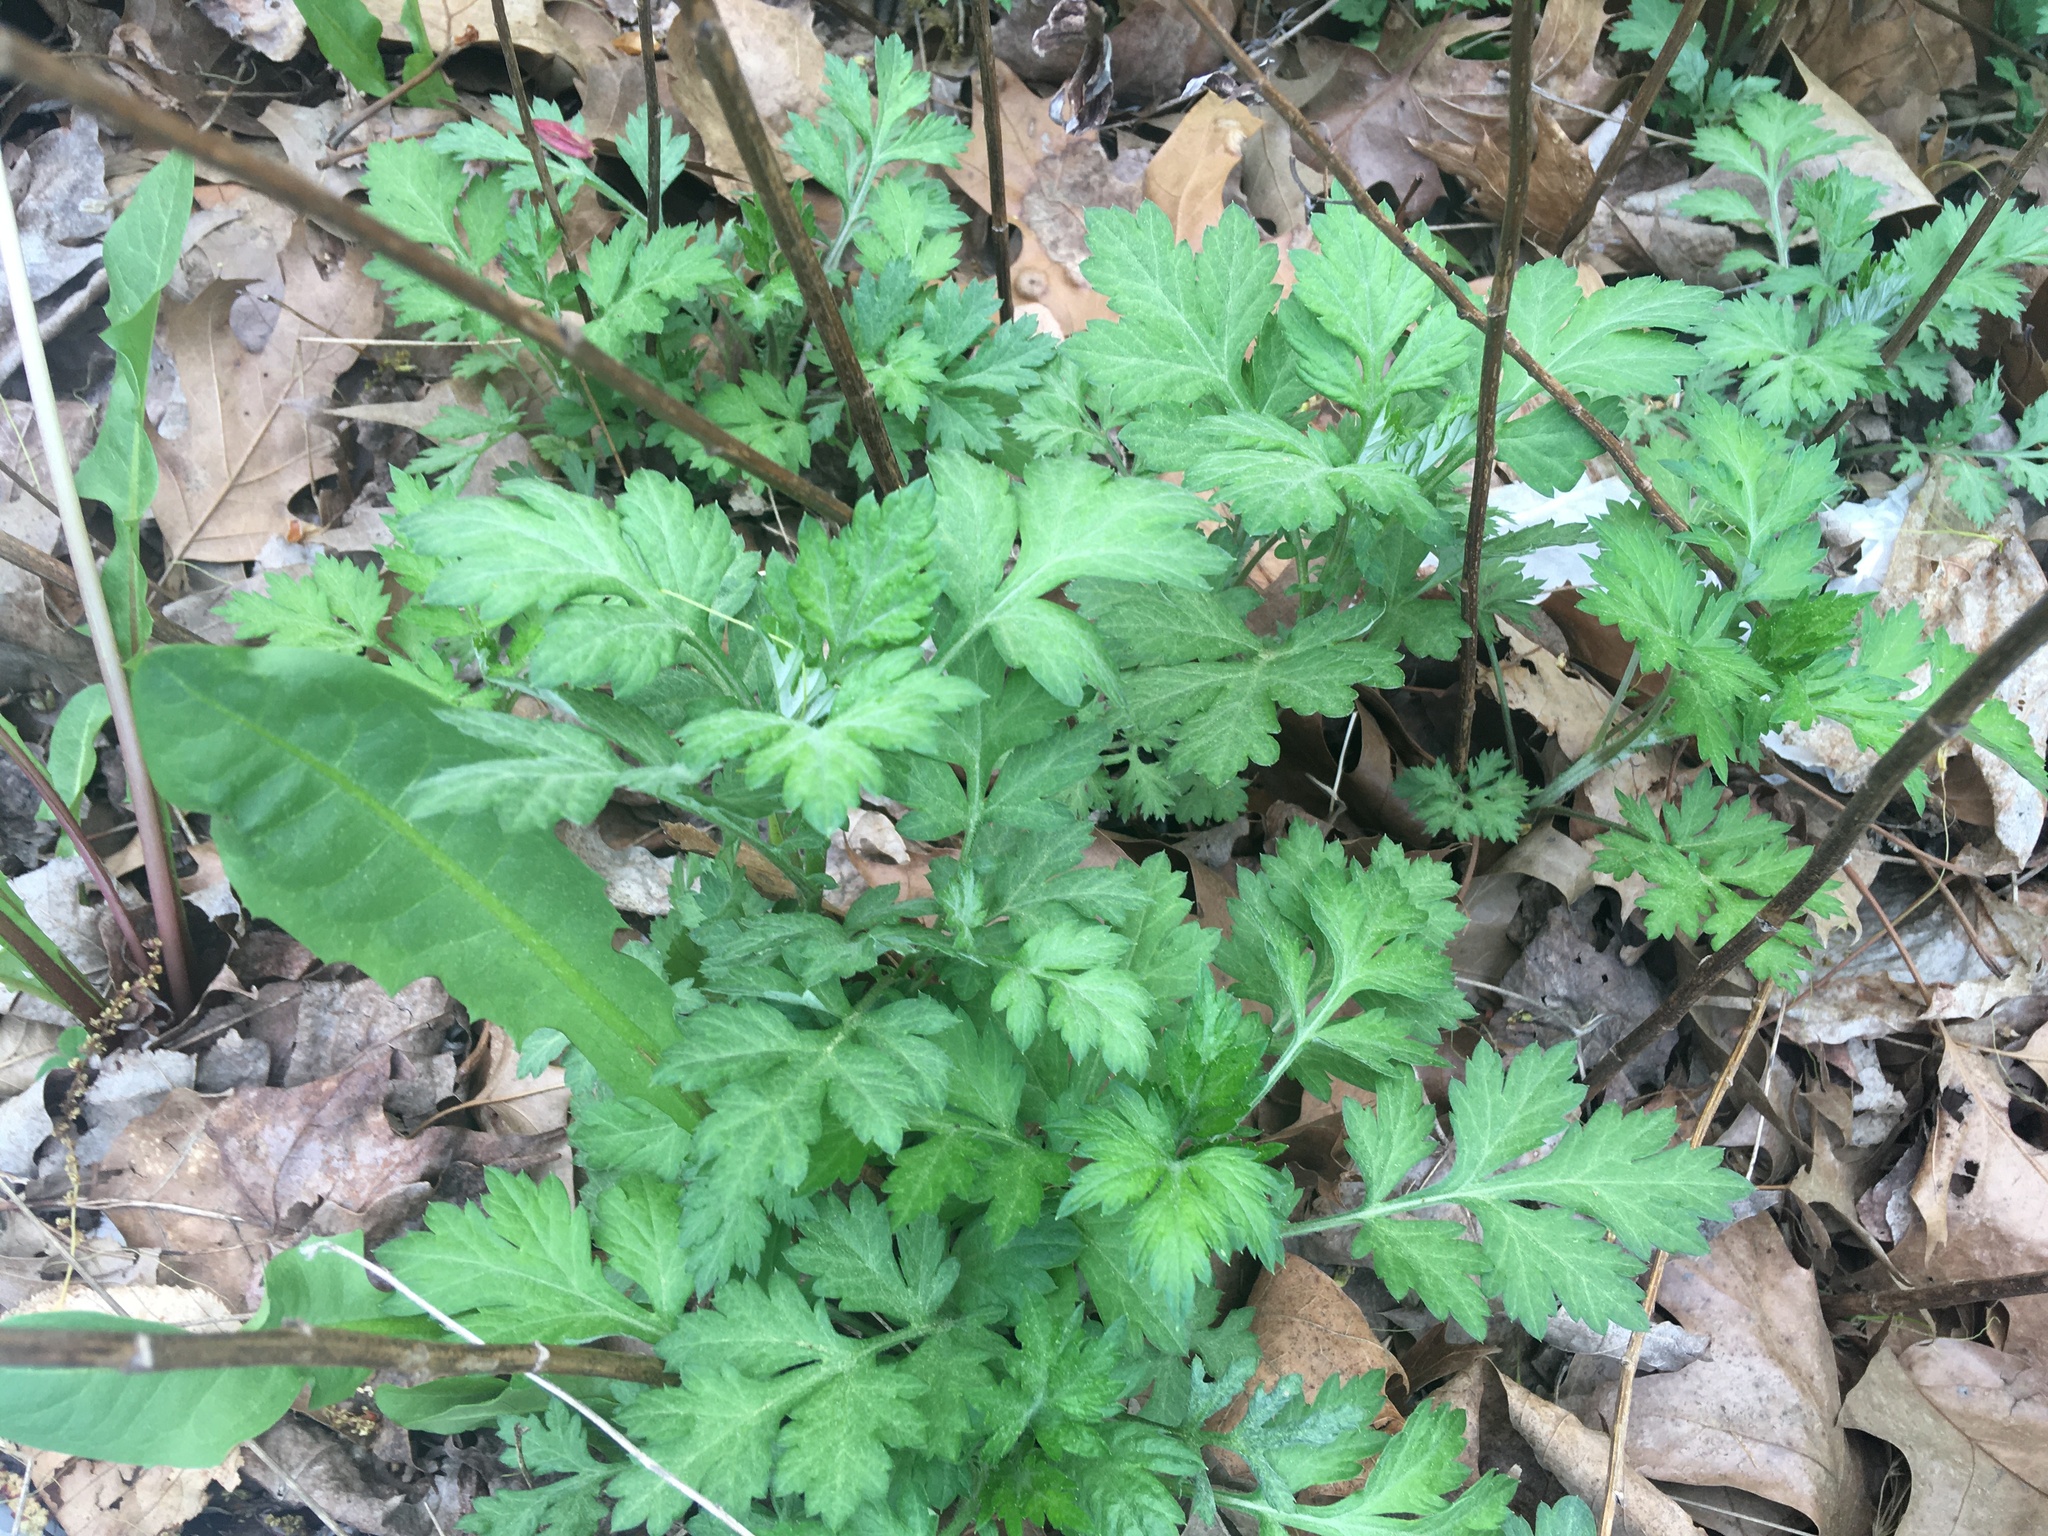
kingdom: Plantae
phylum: Tracheophyta
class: Magnoliopsida
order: Asterales
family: Asteraceae
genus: Artemisia
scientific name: Artemisia vulgaris
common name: Mugwort
